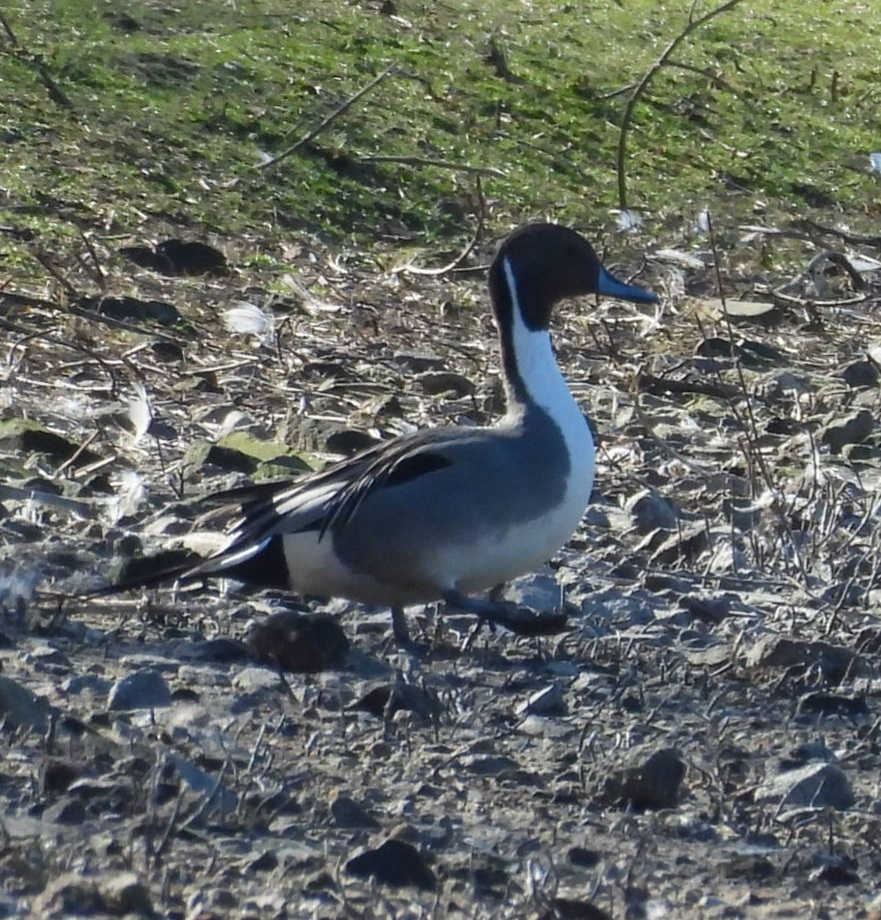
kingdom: Animalia
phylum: Chordata
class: Aves
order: Anseriformes
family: Anatidae
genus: Anas
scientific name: Anas acuta
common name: Northern pintail
